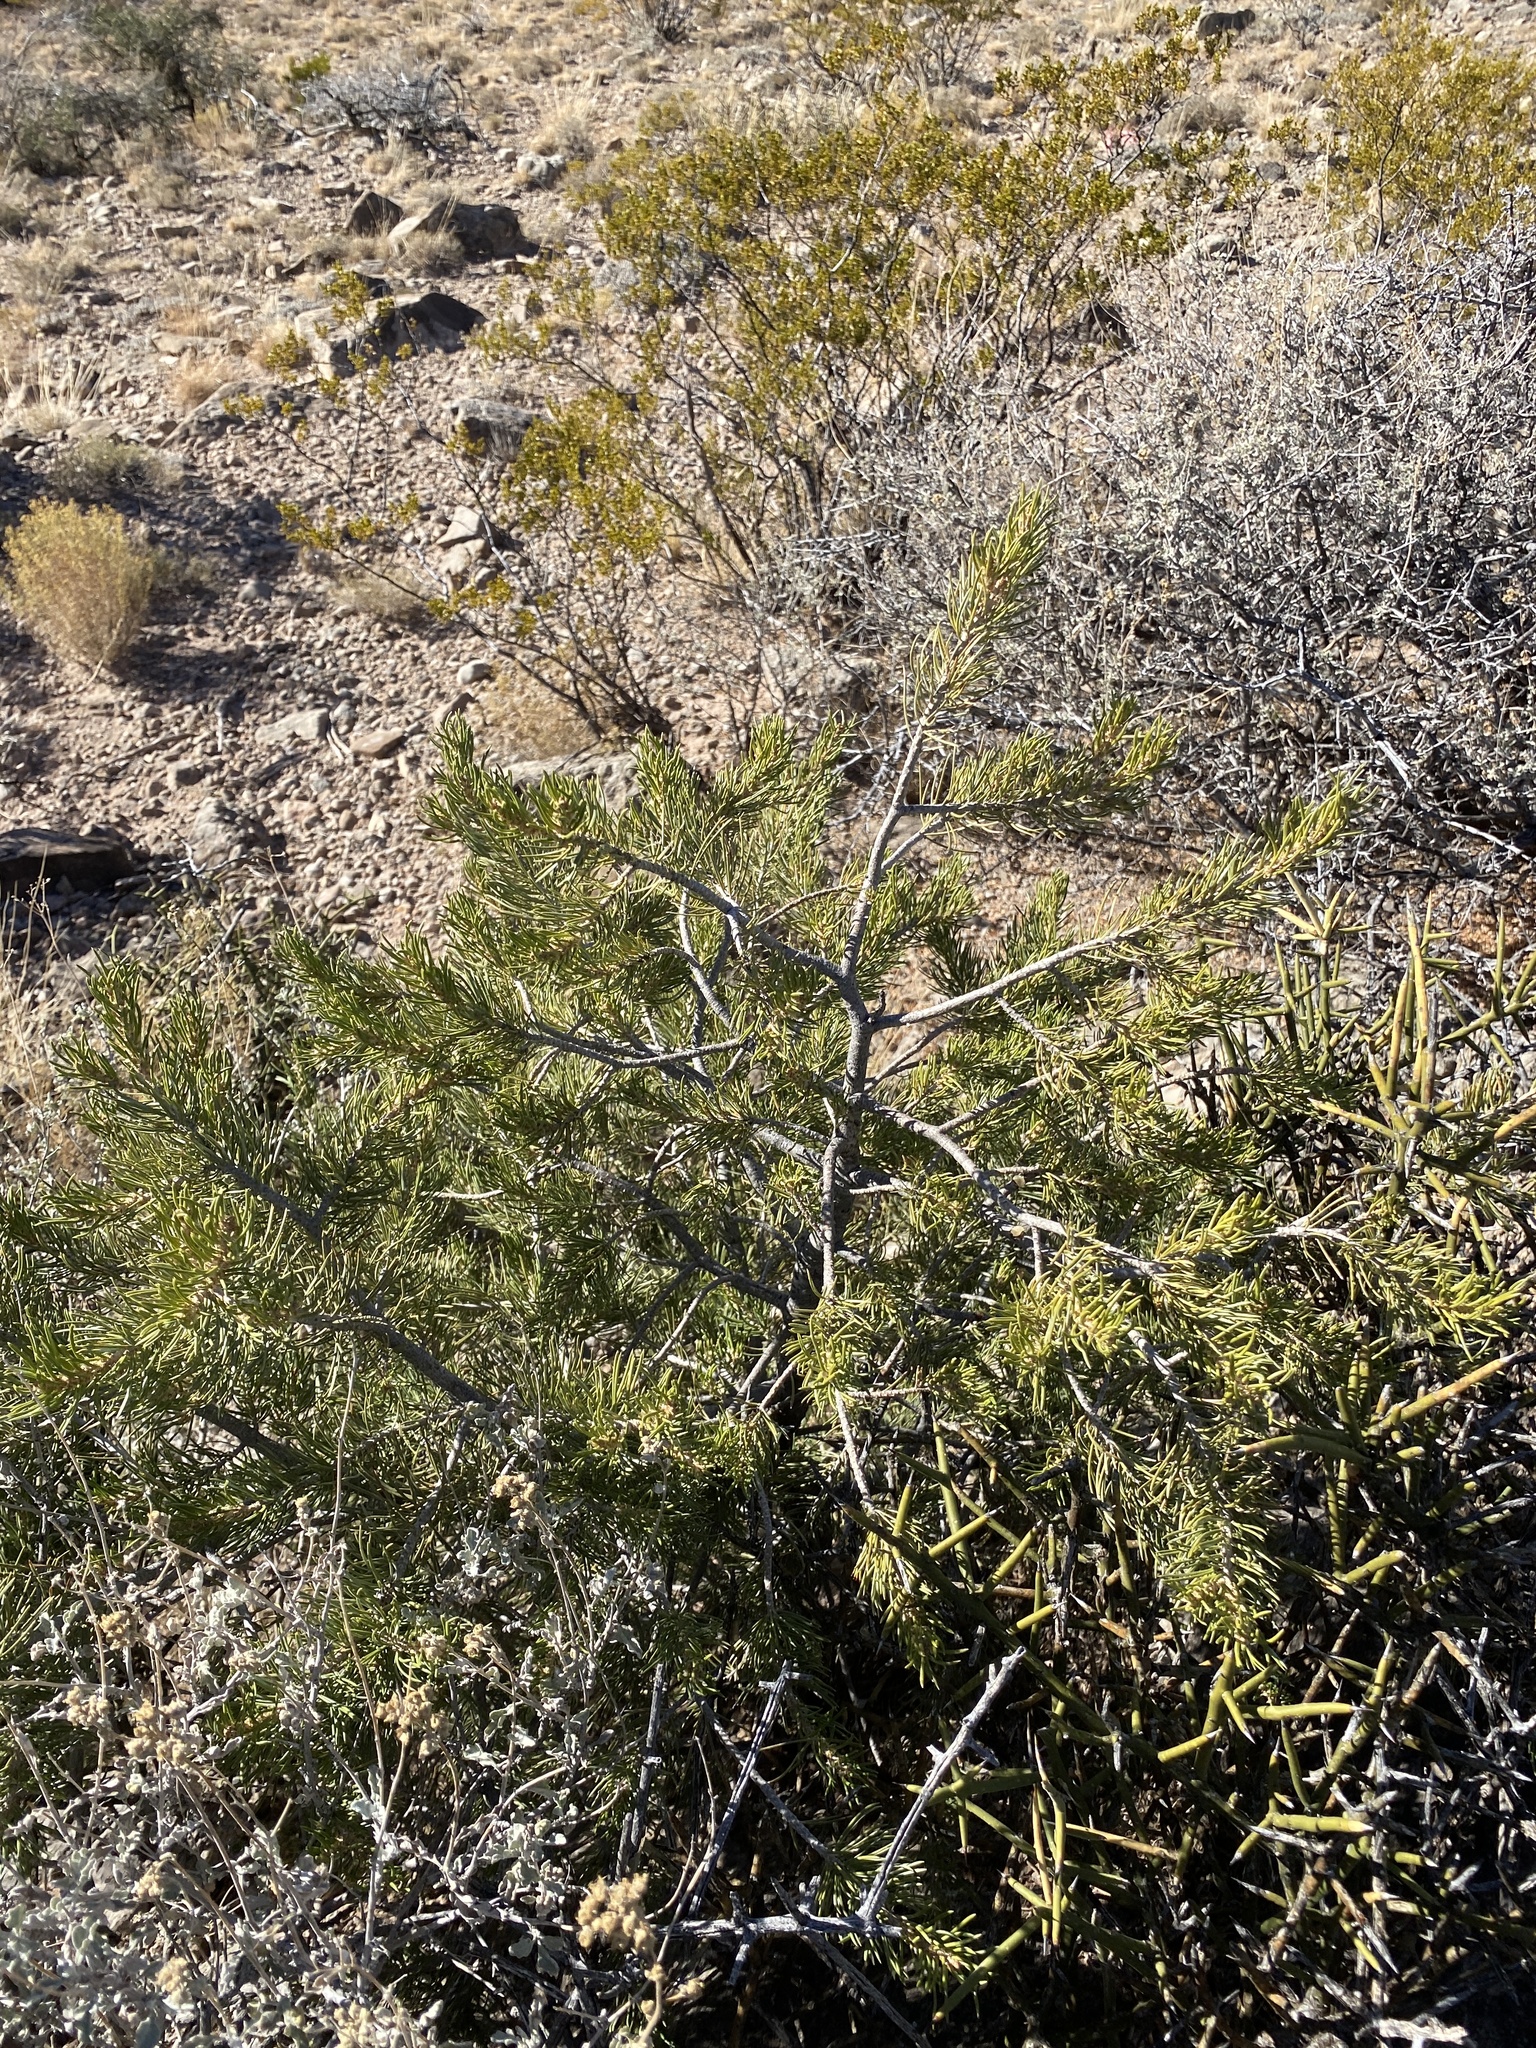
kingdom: Plantae
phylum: Tracheophyta
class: Pinopsida
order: Pinales
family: Pinaceae
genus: Pinus
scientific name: Pinus edulis
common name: Colorado pinyon
